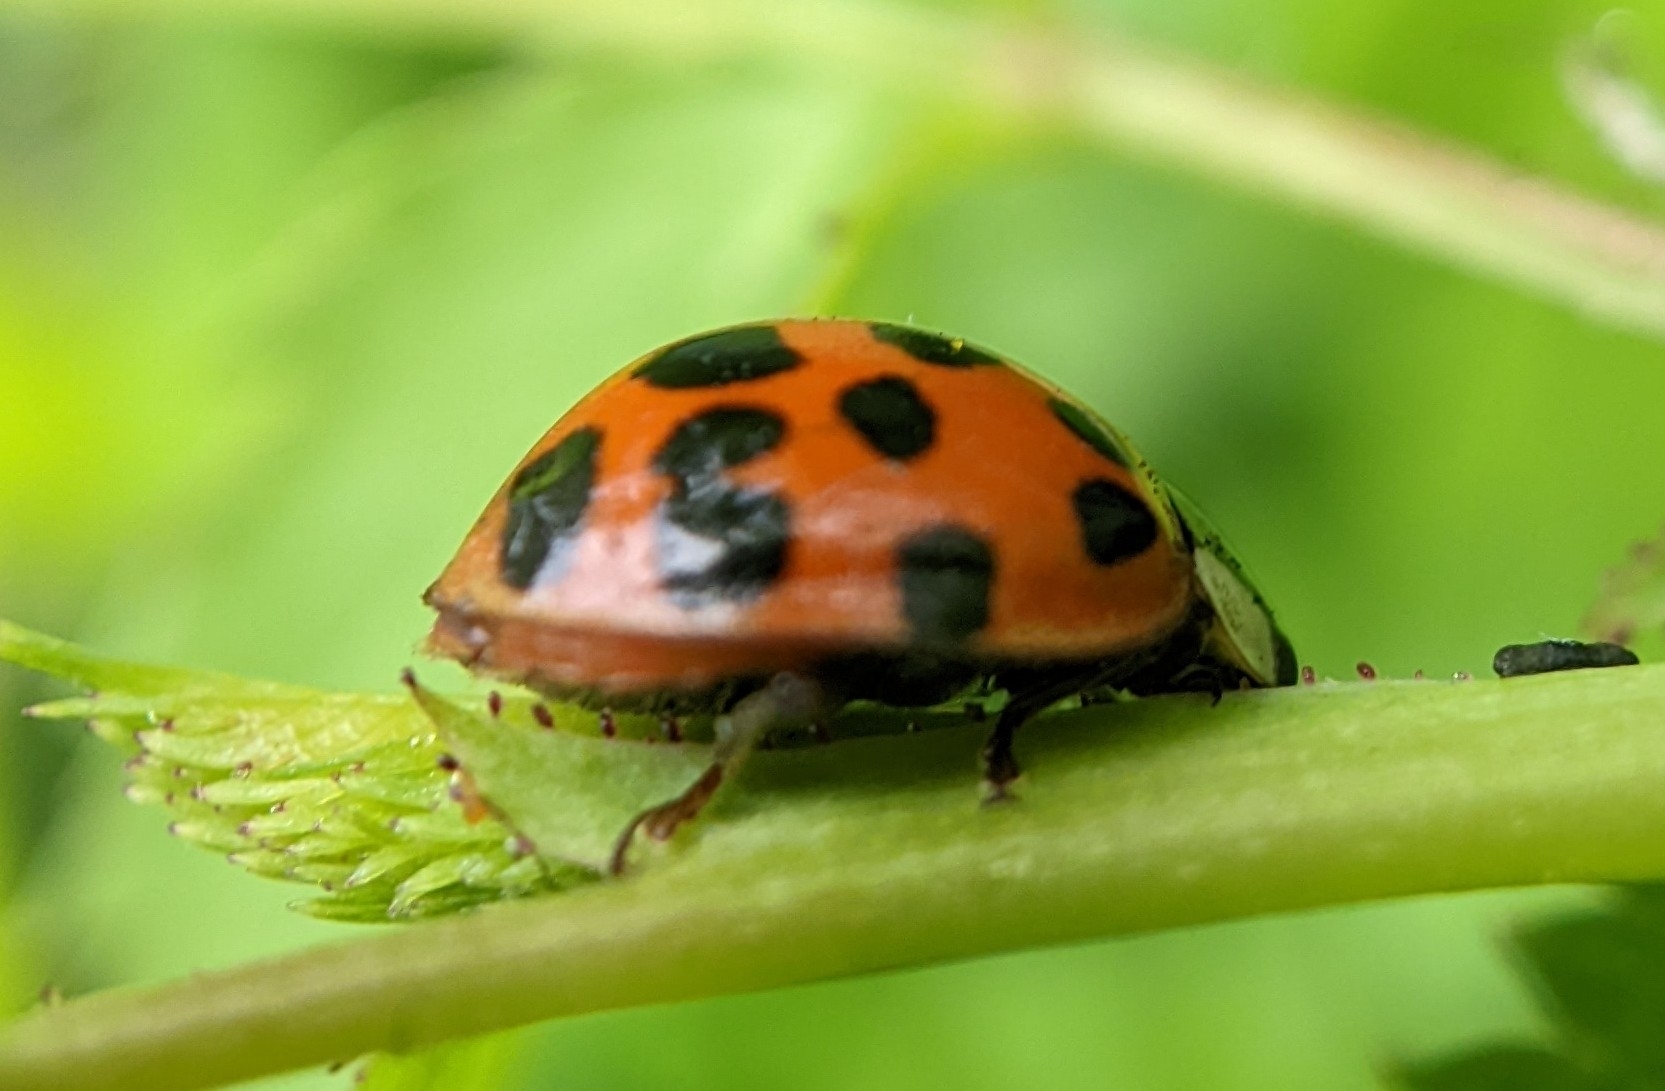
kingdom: Animalia
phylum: Arthropoda
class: Insecta
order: Coleoptera
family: Coccinellidae
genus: Harmonia
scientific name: Harmonia axyridis
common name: Harlequin ladybird
